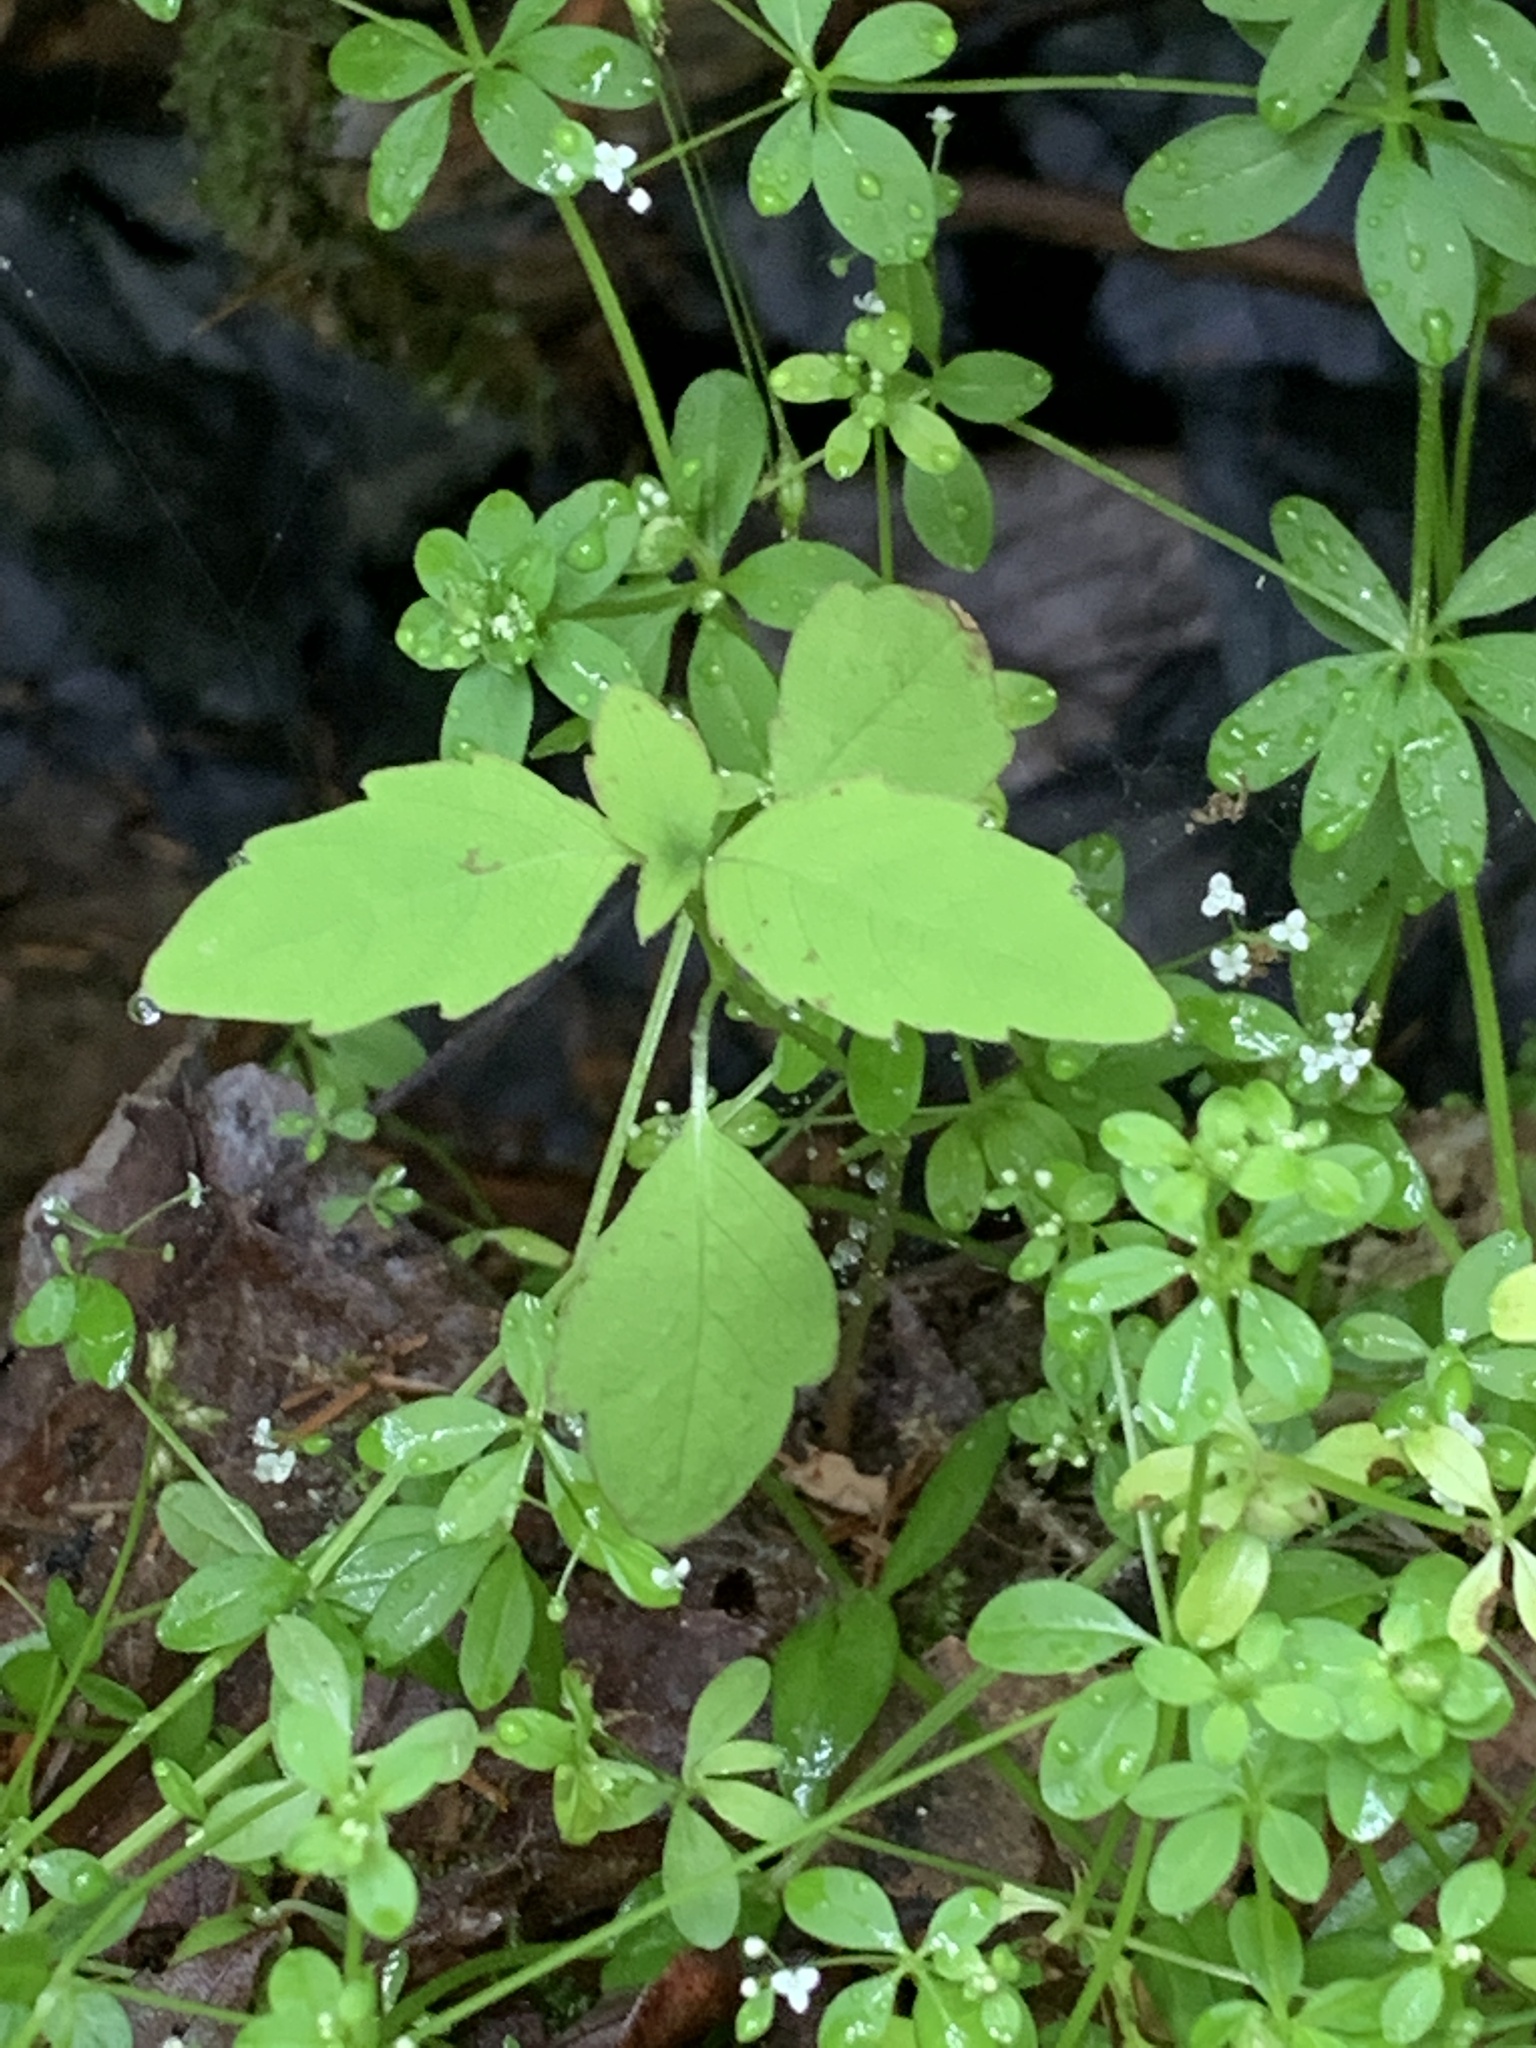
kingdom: Plantae
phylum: Tracheophyta
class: Magnoliopsida
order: Ericales
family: Balsaminaceae
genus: Impatiens
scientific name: Impatiens capensis
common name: Orange balsam
